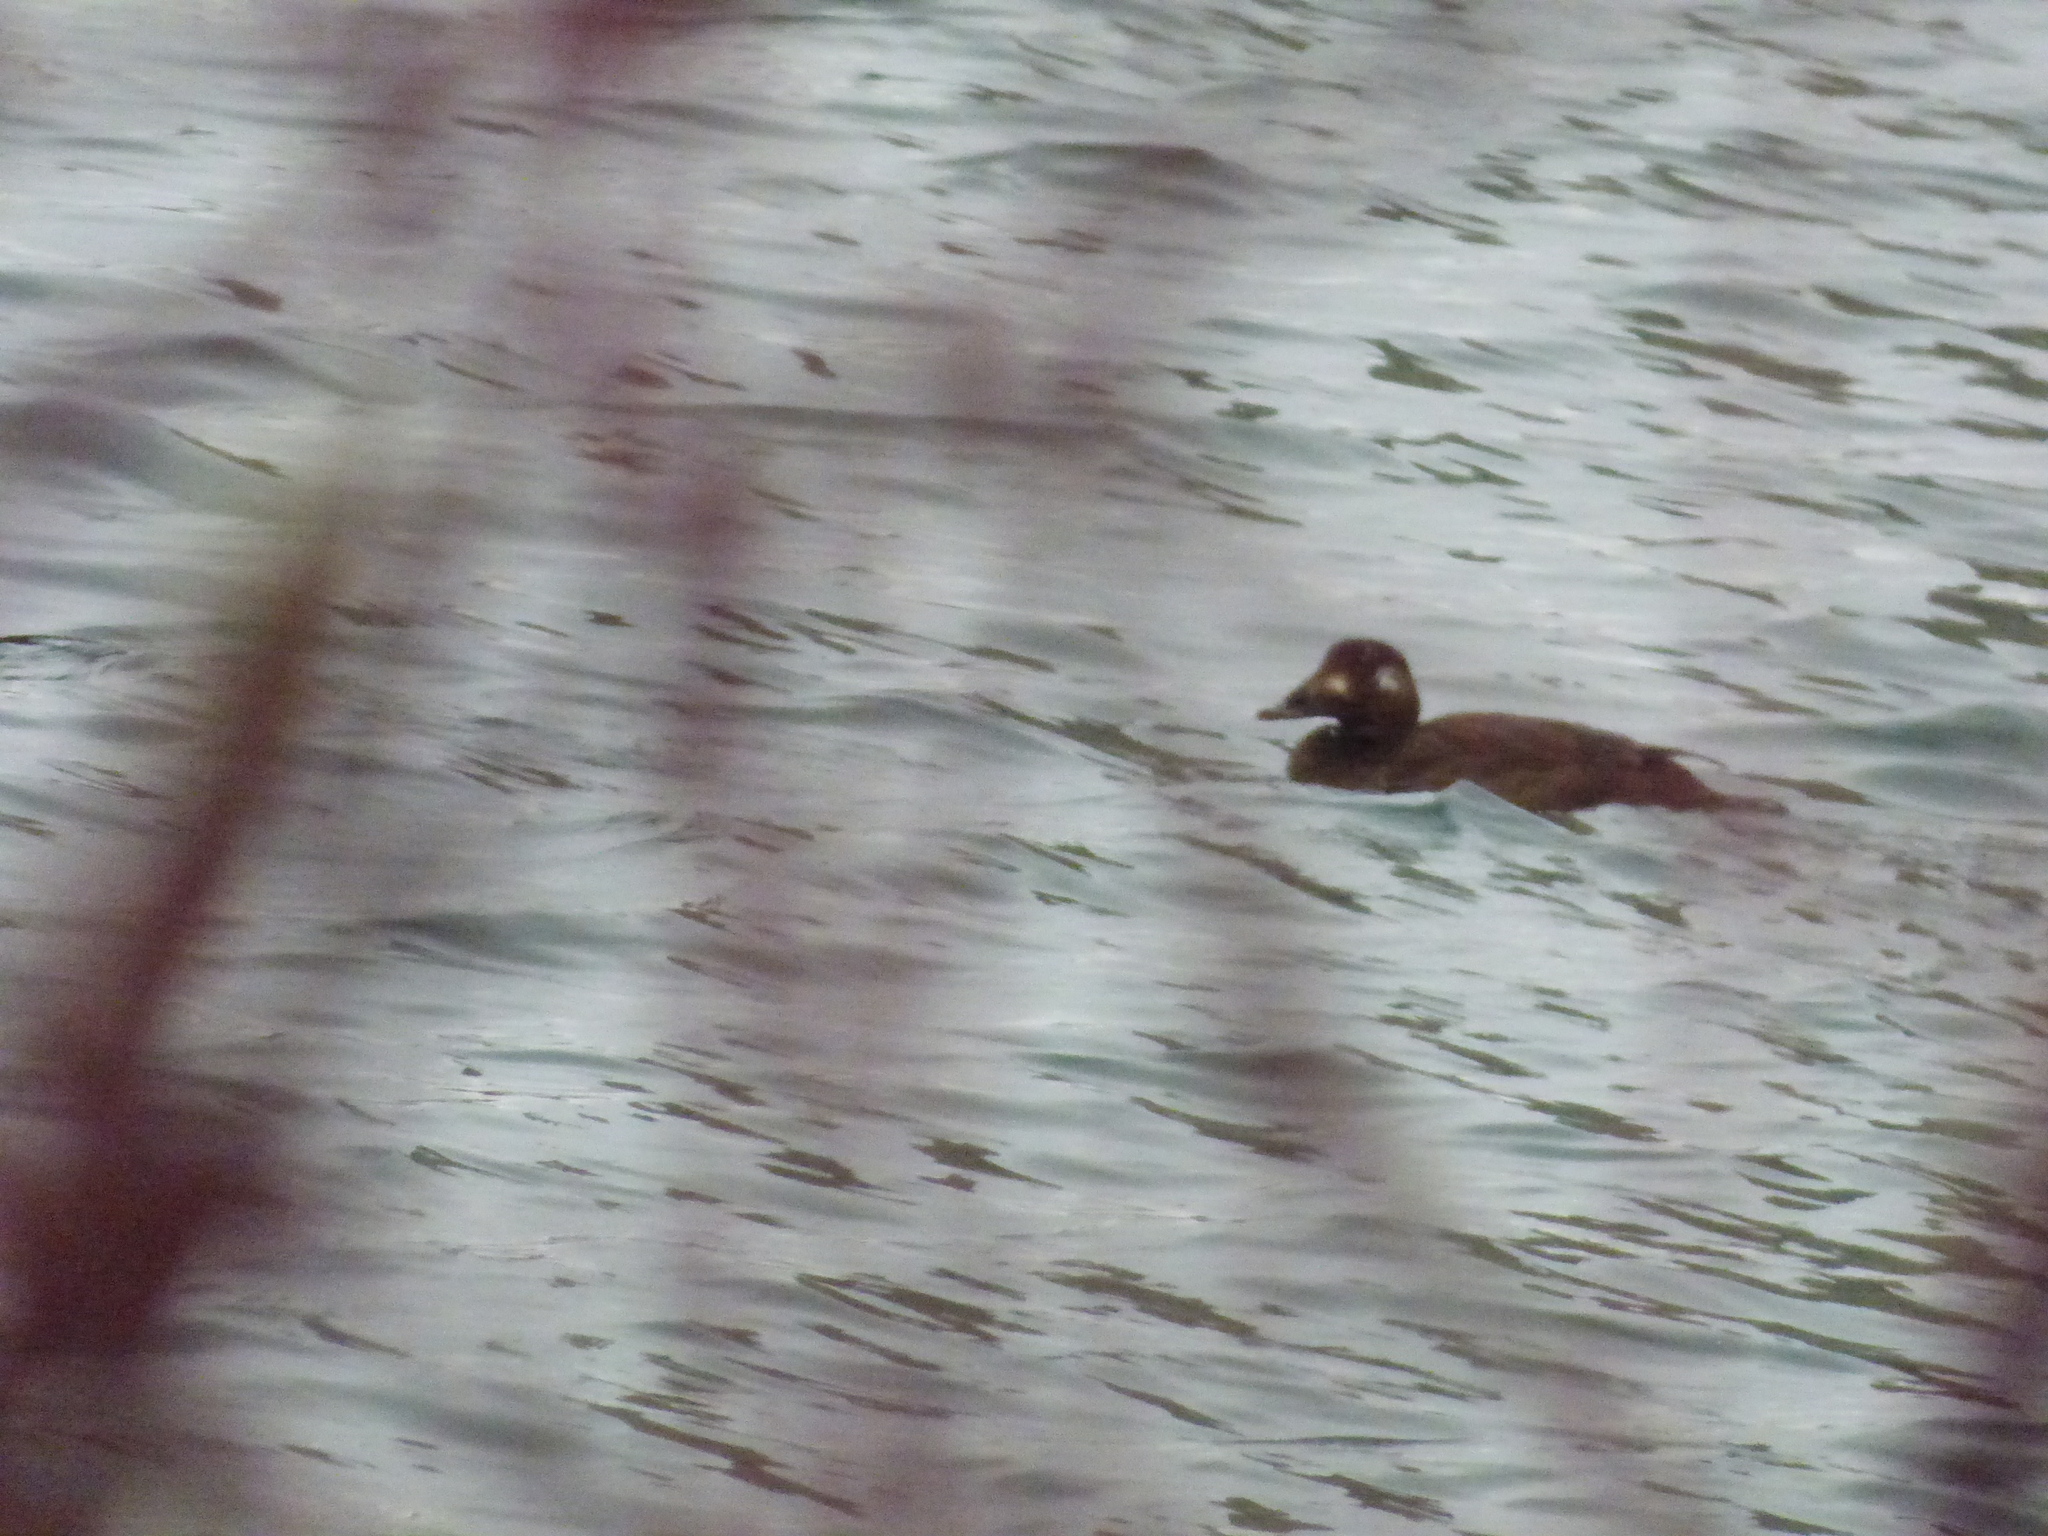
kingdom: Animalia
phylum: Chordata
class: Aves
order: Anseriformes
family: Anatidae
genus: Melanitta
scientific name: Melanitta deglandi
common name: White-winged scoter
